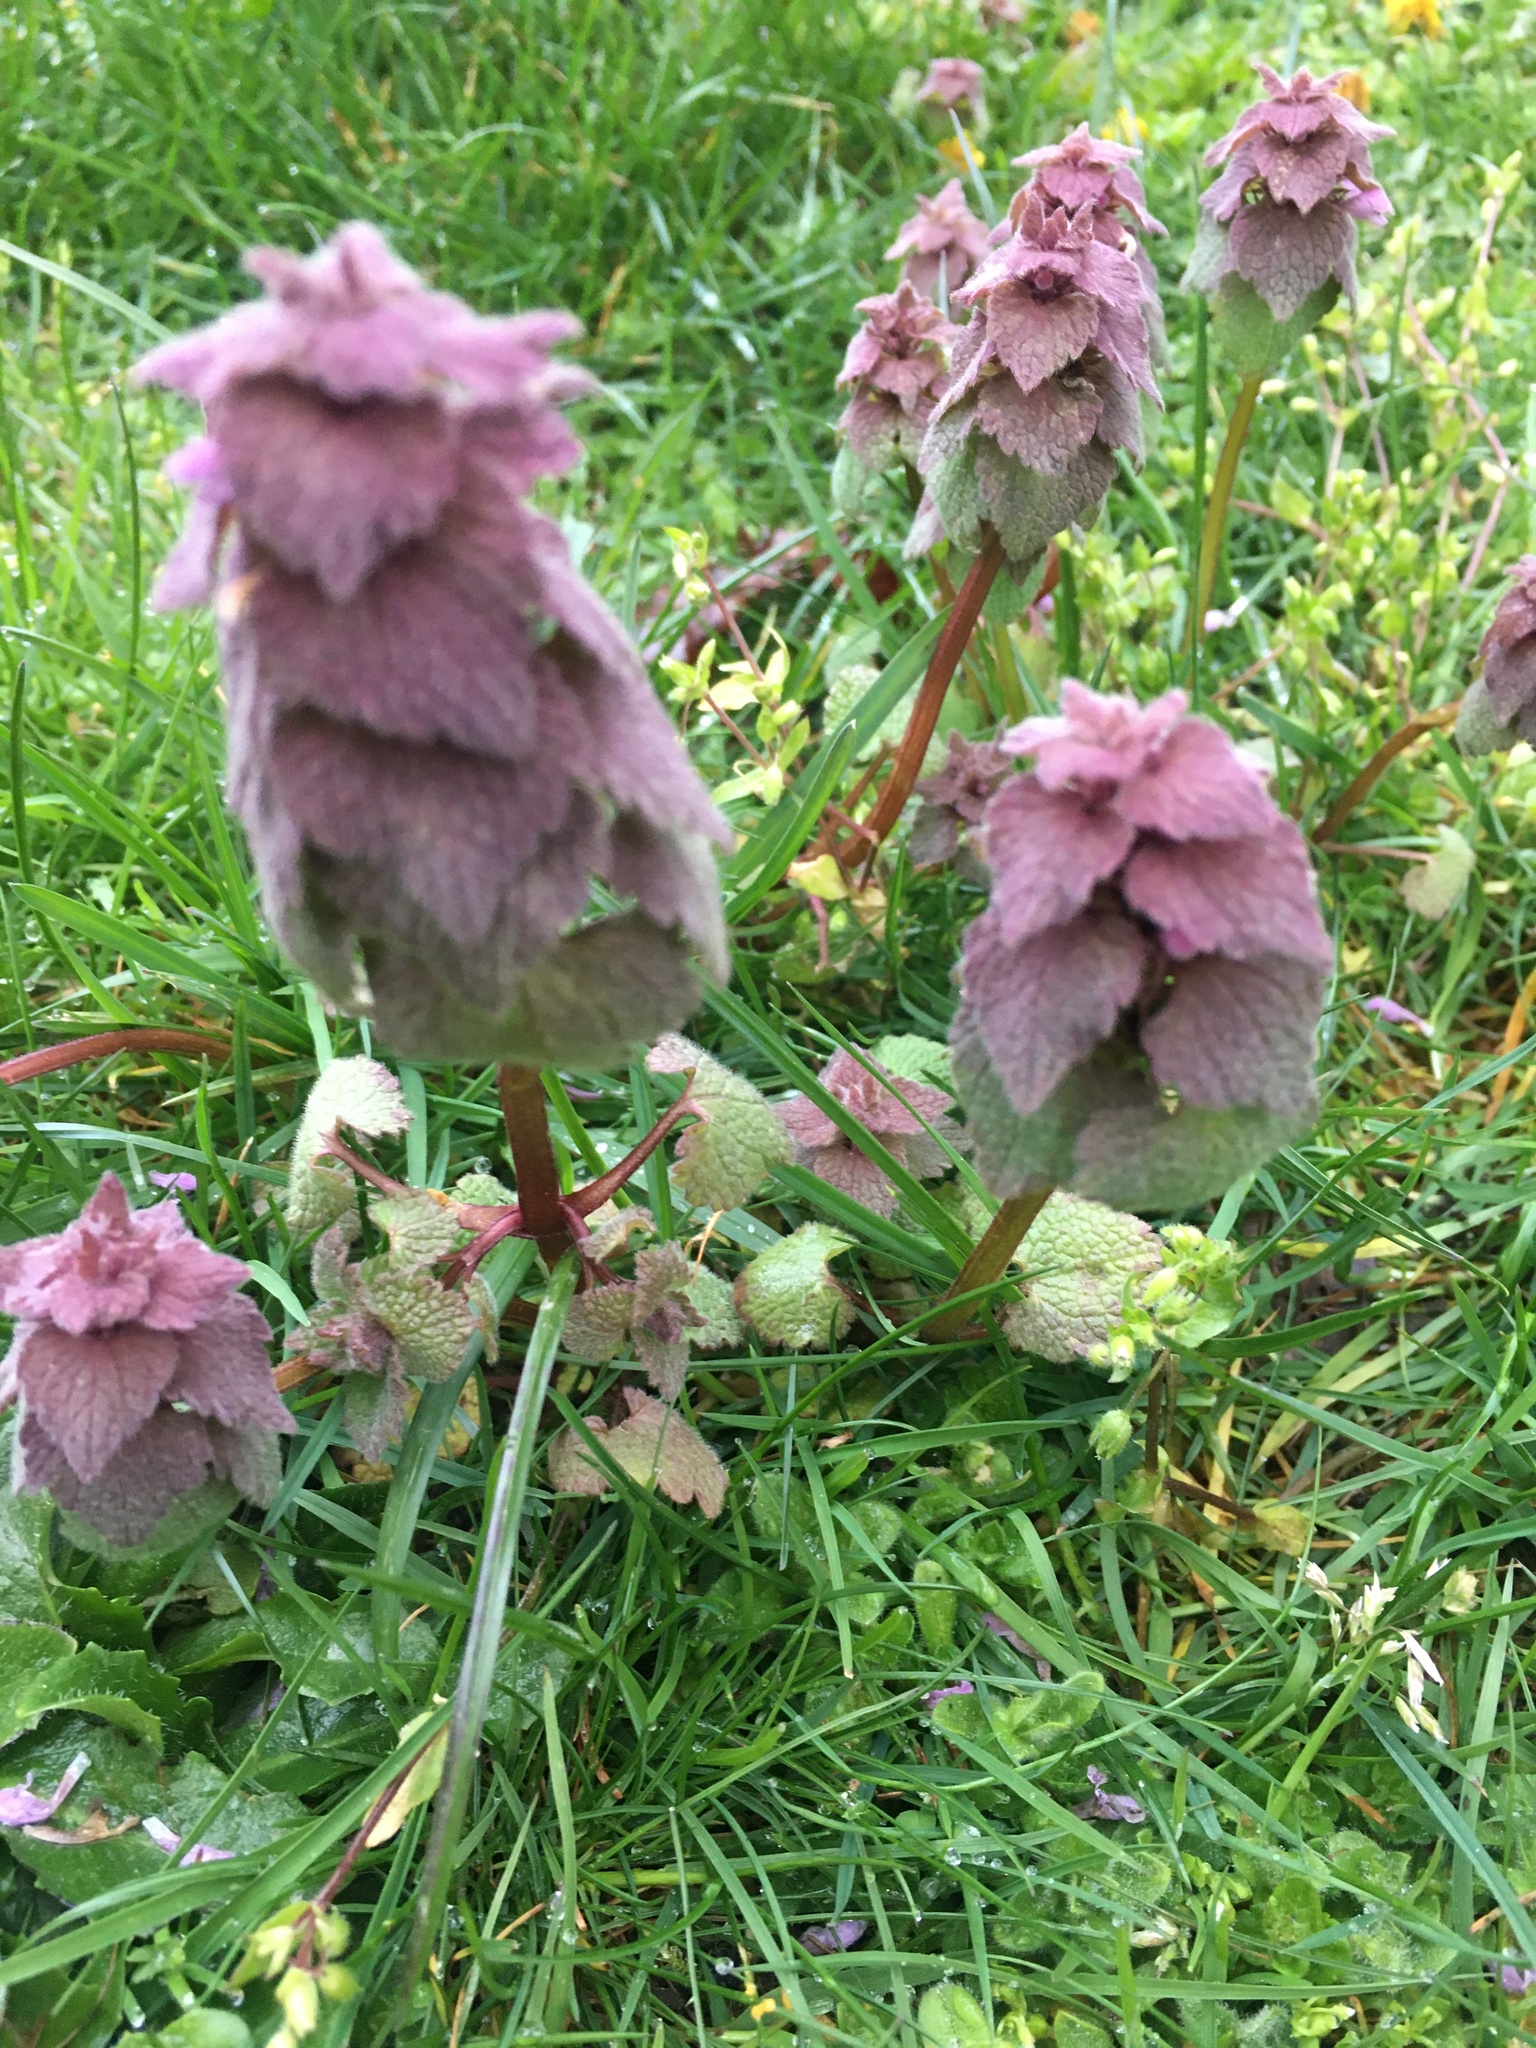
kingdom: Plantae
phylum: Tracheophyta
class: Magnoliopsida
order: Lamiales
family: Lamiaceae
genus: Lamium
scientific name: Lamium purpureum
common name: Red dead-nettle
